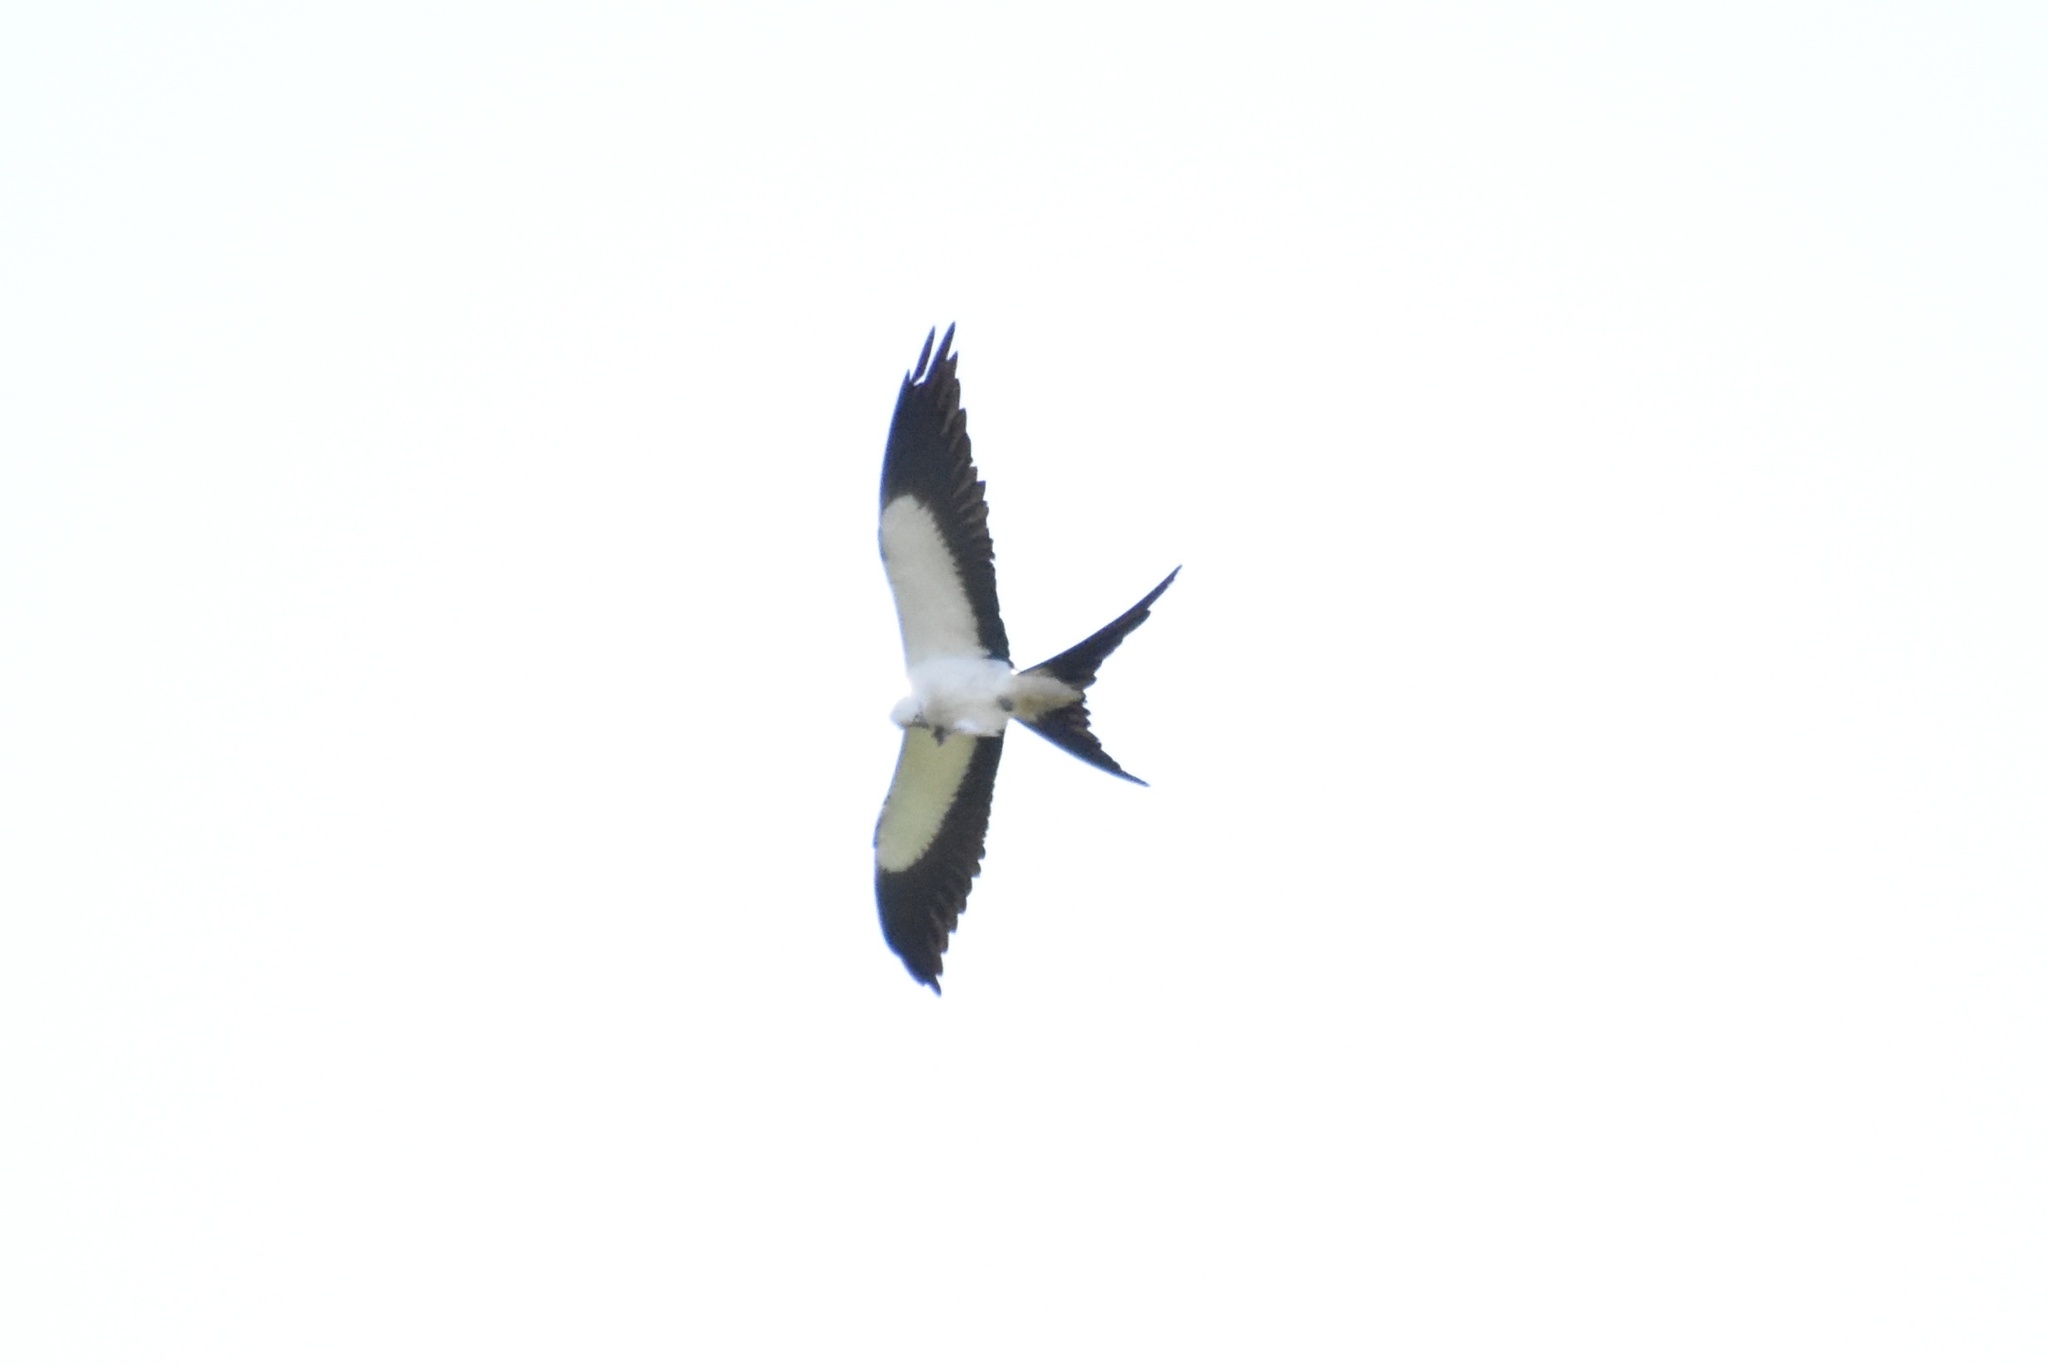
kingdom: Animalia
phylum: Chordata
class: Aves
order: Accipitriformes
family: Accipitridae
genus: Elanoides
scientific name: Elanoides forficatus
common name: Swallow-tailed kite
